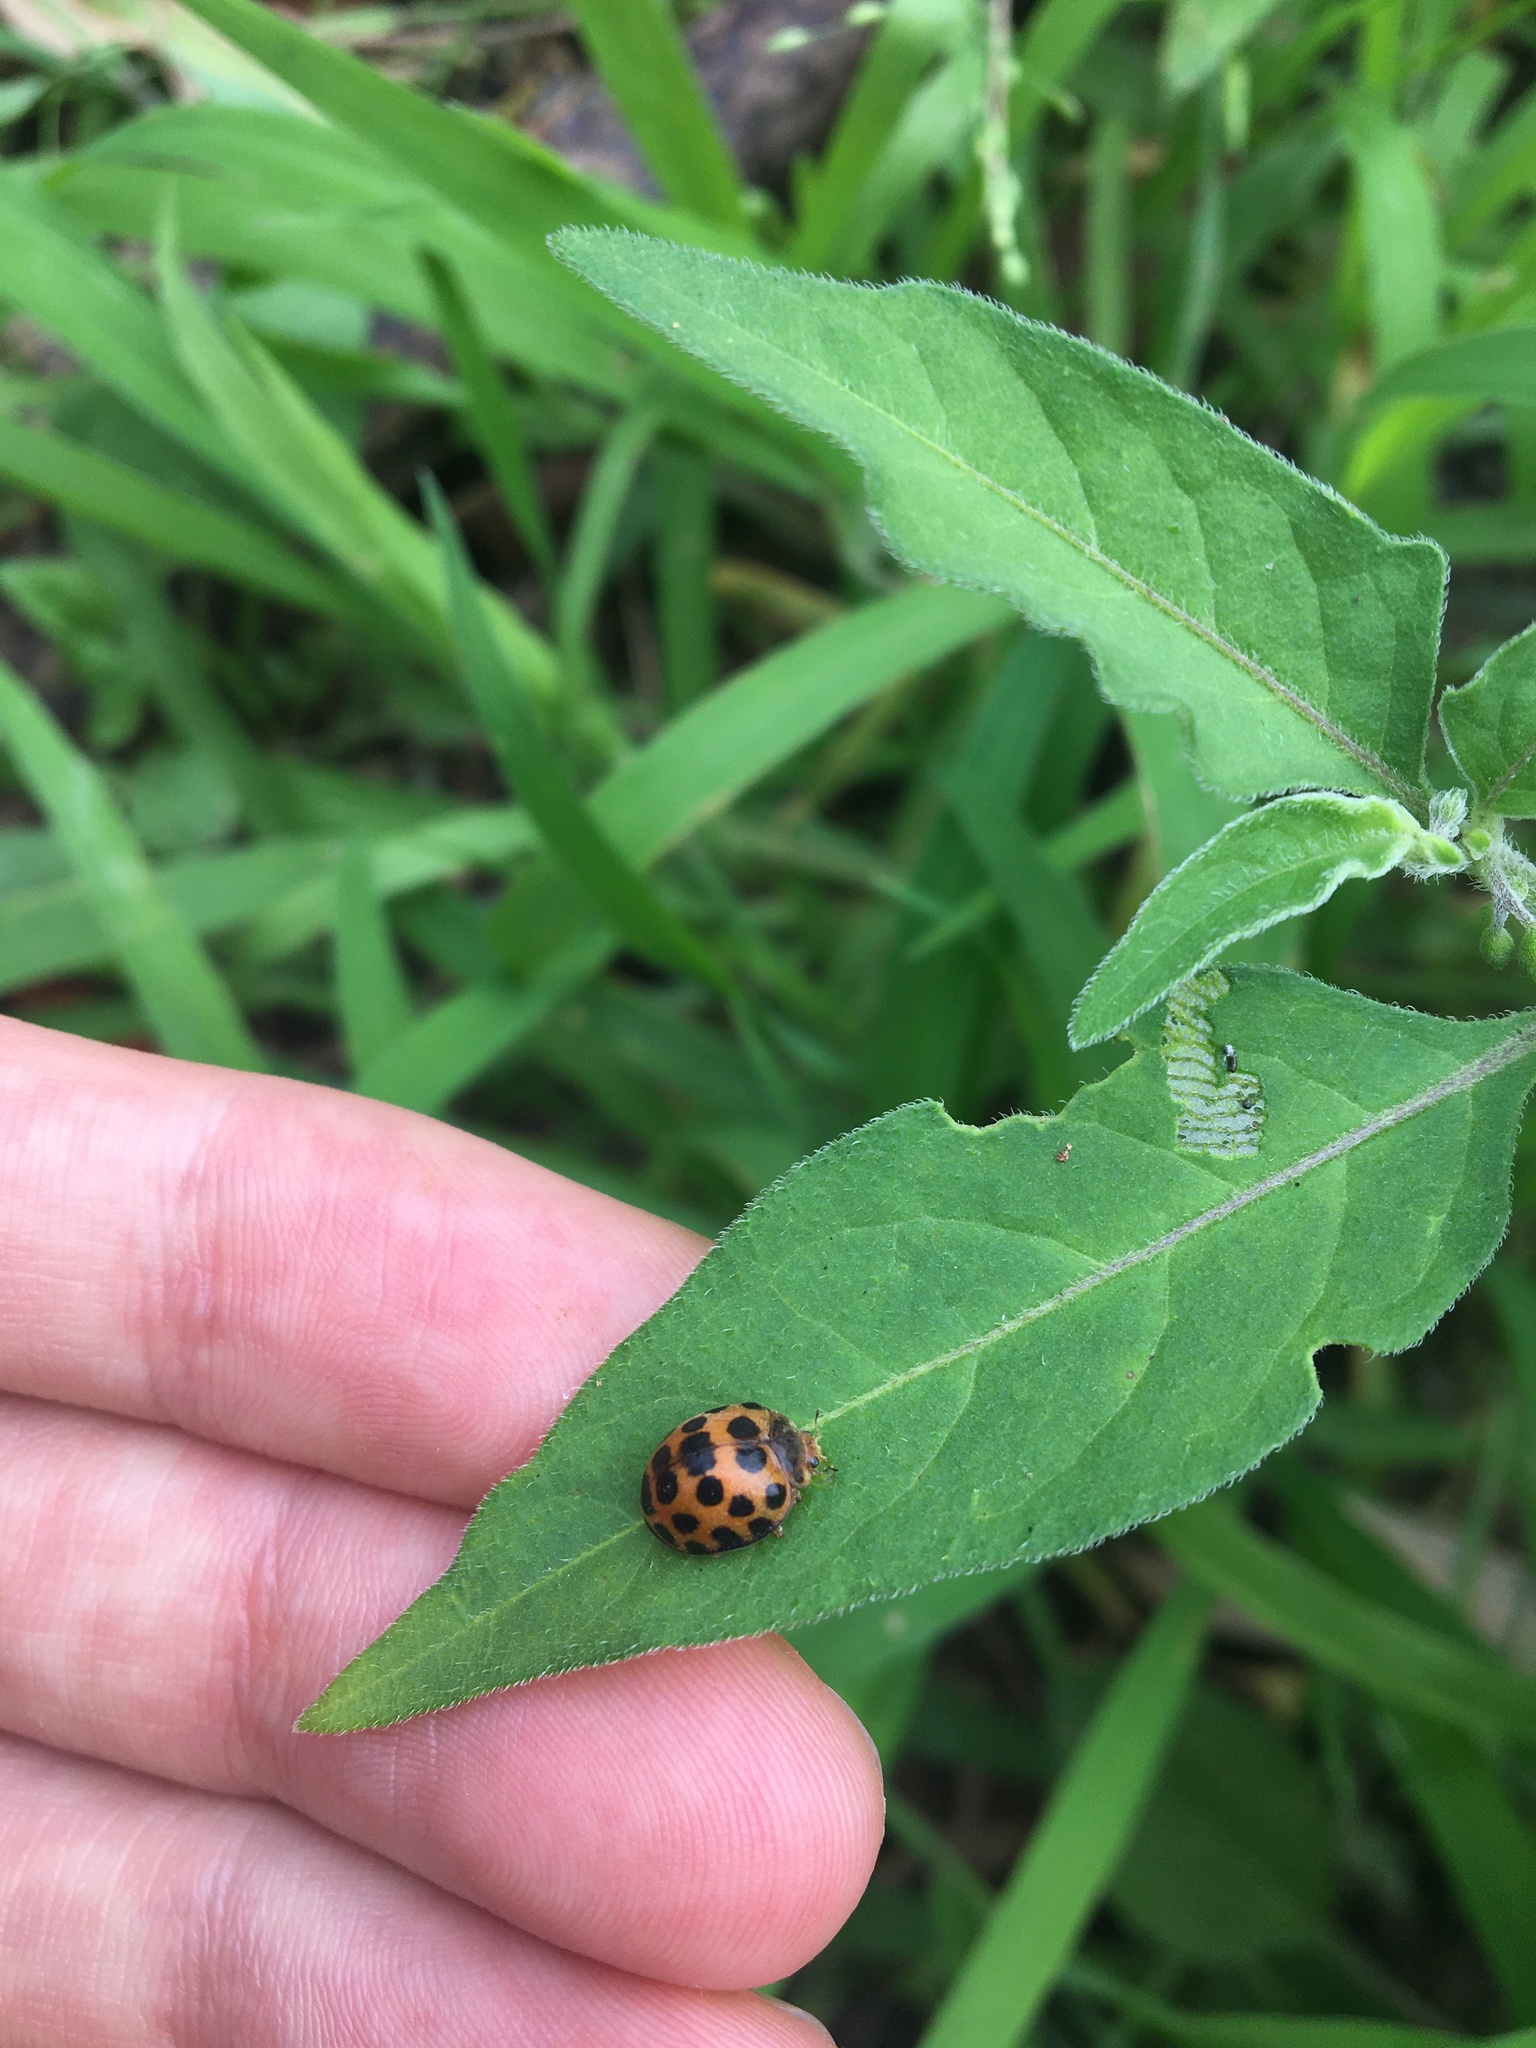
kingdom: Animalia
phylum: Arthropoda
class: Insecta
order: Coleoptera
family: Coccinellidae
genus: Henosepilachna
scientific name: Henosepilachna vigintioctopunctata
